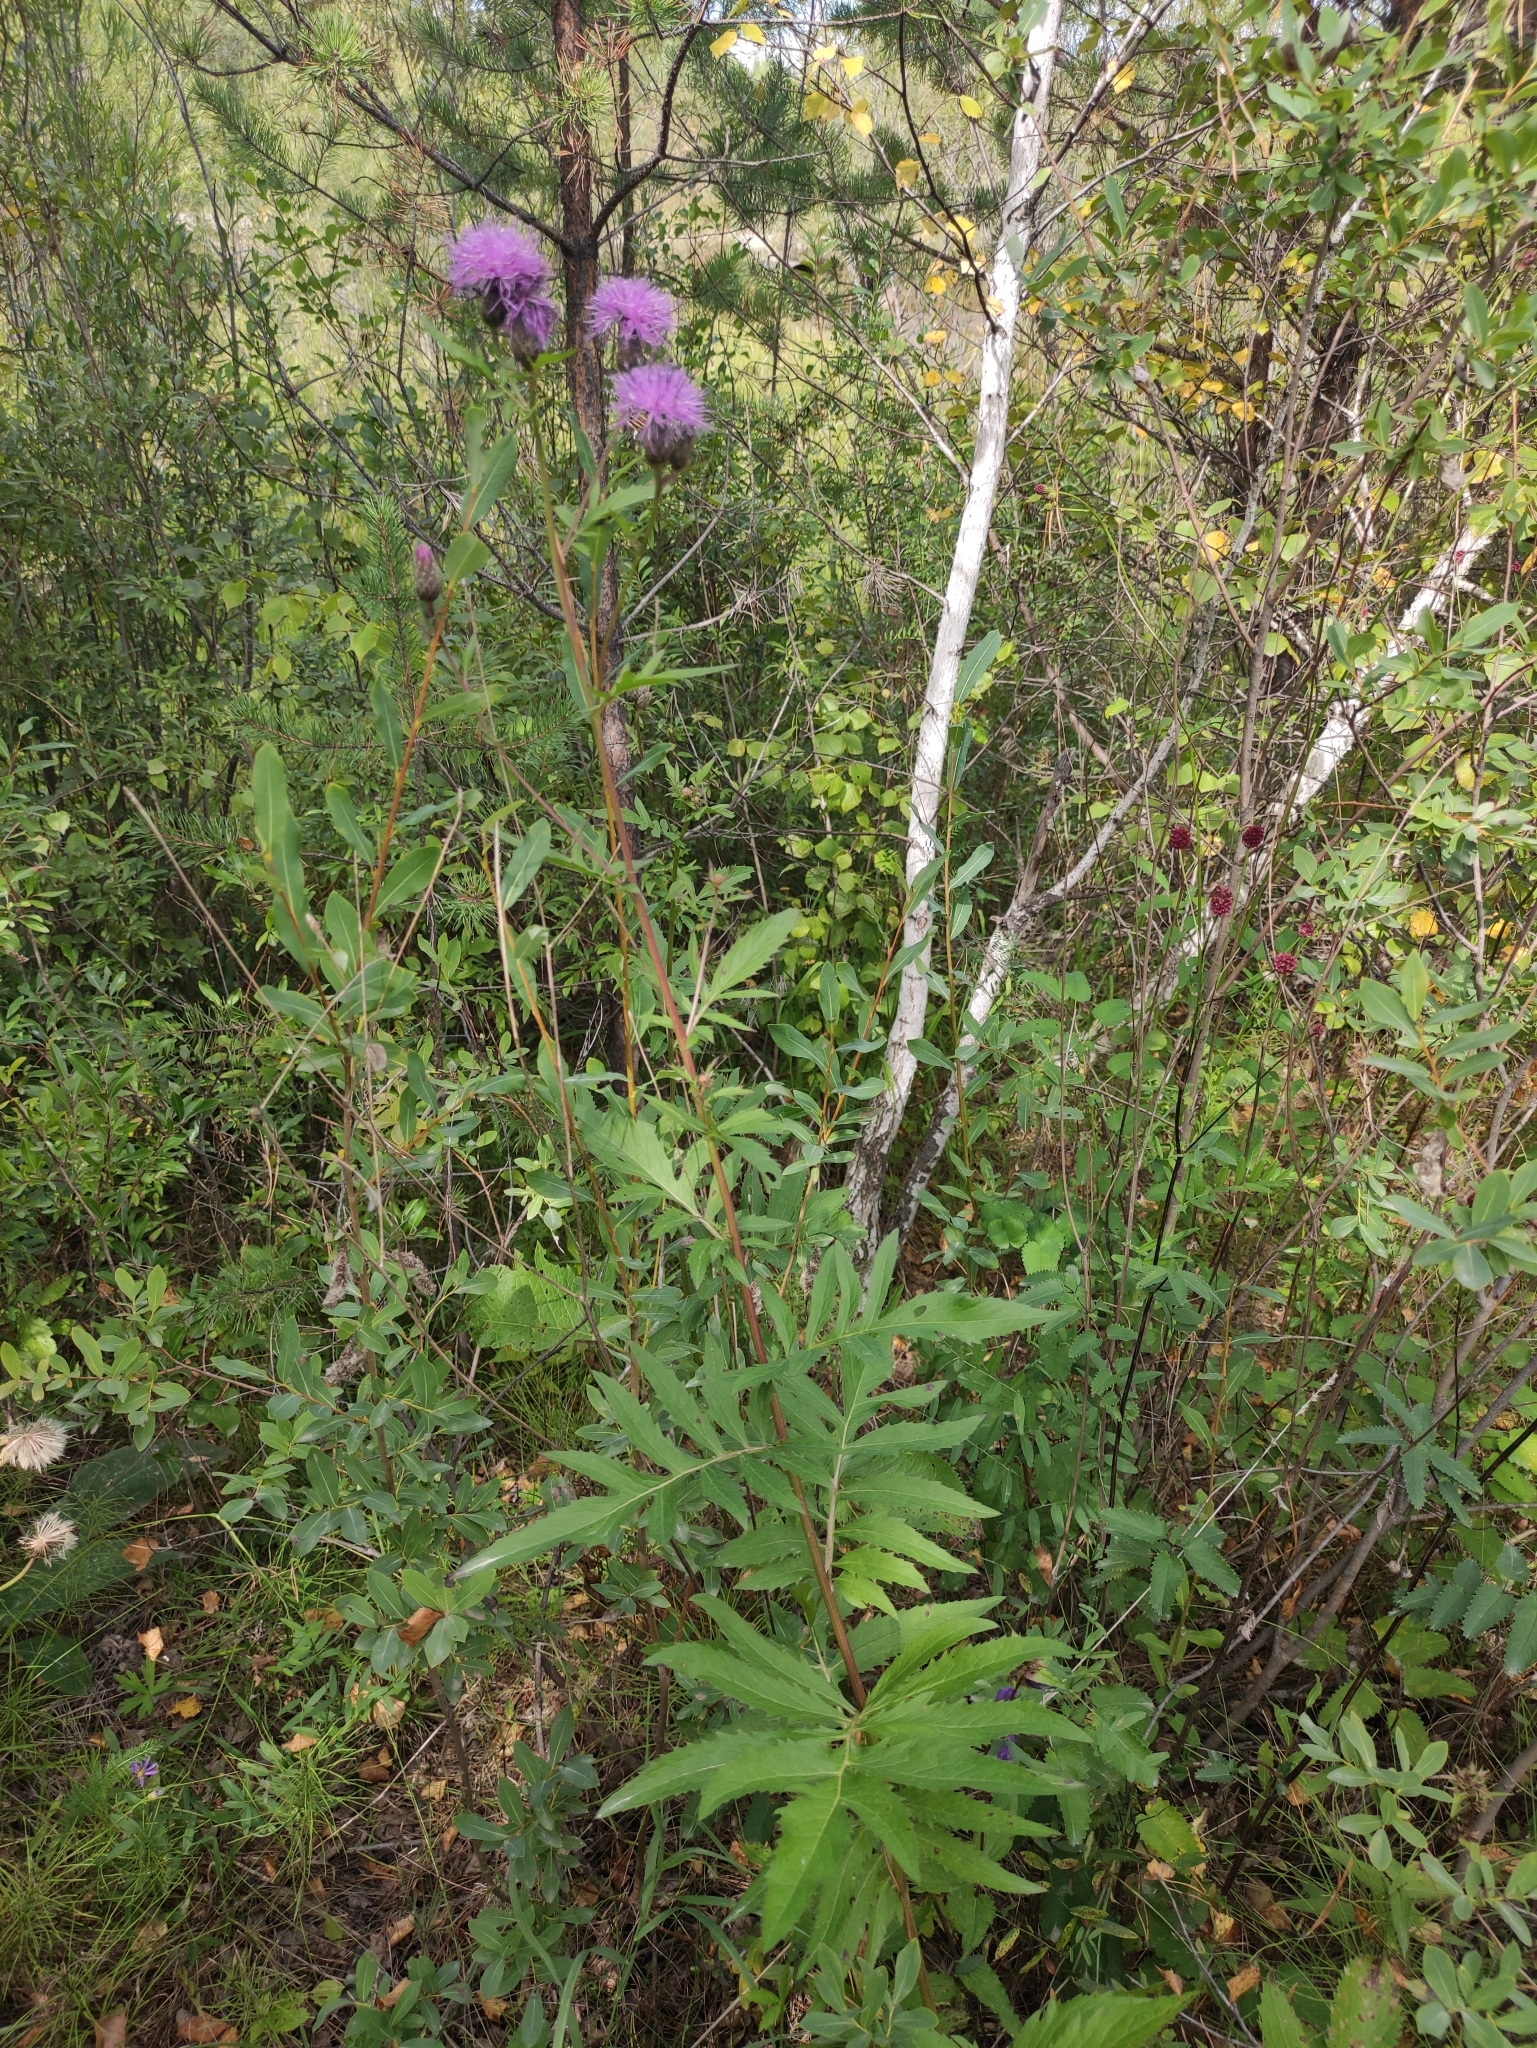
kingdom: Plantae
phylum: Tracheophyta
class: Magnoliopsida
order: Asterales
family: Asteraceae
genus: Serratula
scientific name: Serratula coronata
